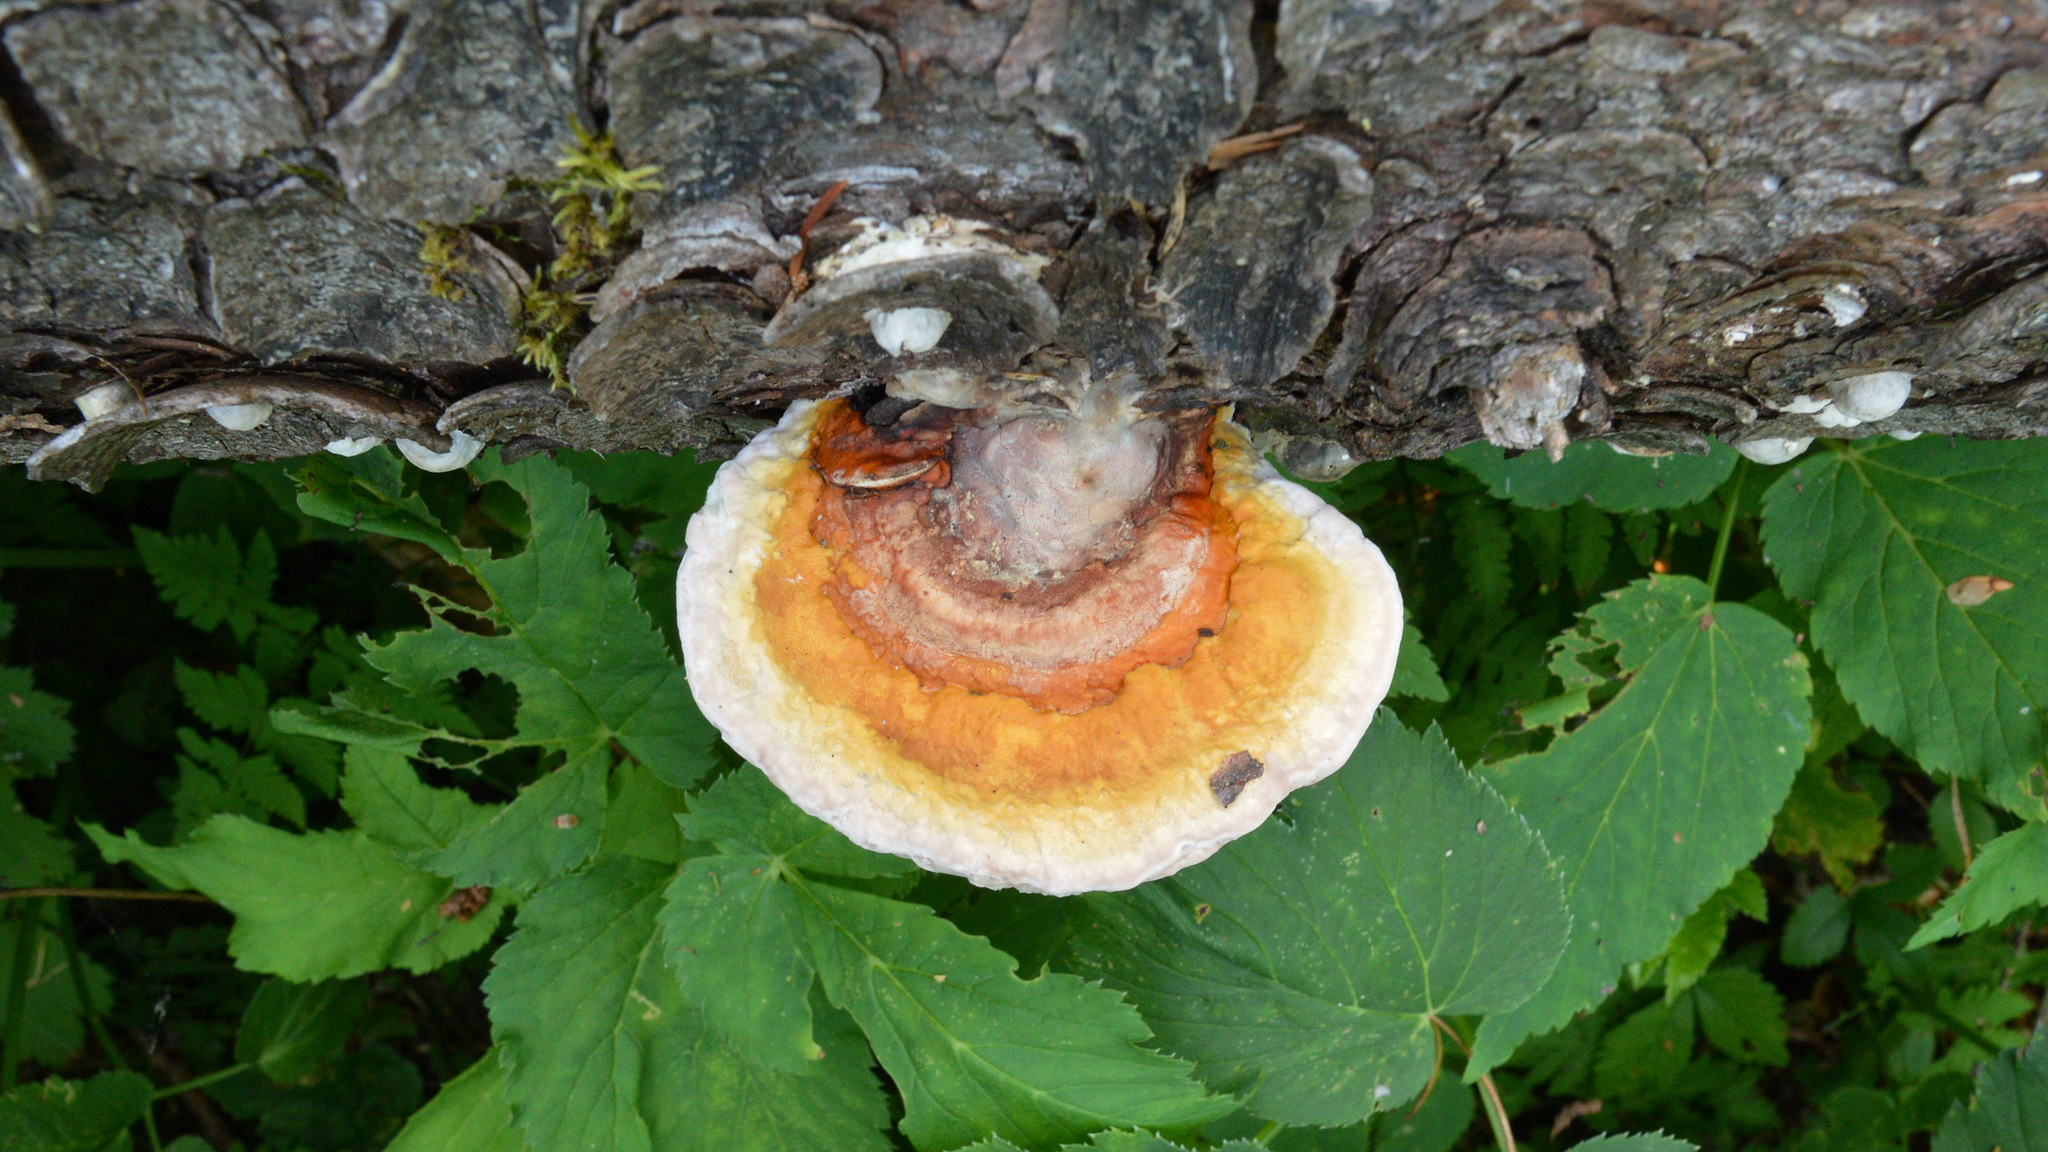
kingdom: Fungi
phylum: Basidiomycota
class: Agaricomycetes
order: Polyporales
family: Fomitopsidaceae
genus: Fomitopsis
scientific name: Fomitopsis pinicola
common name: Red-belted bracket
